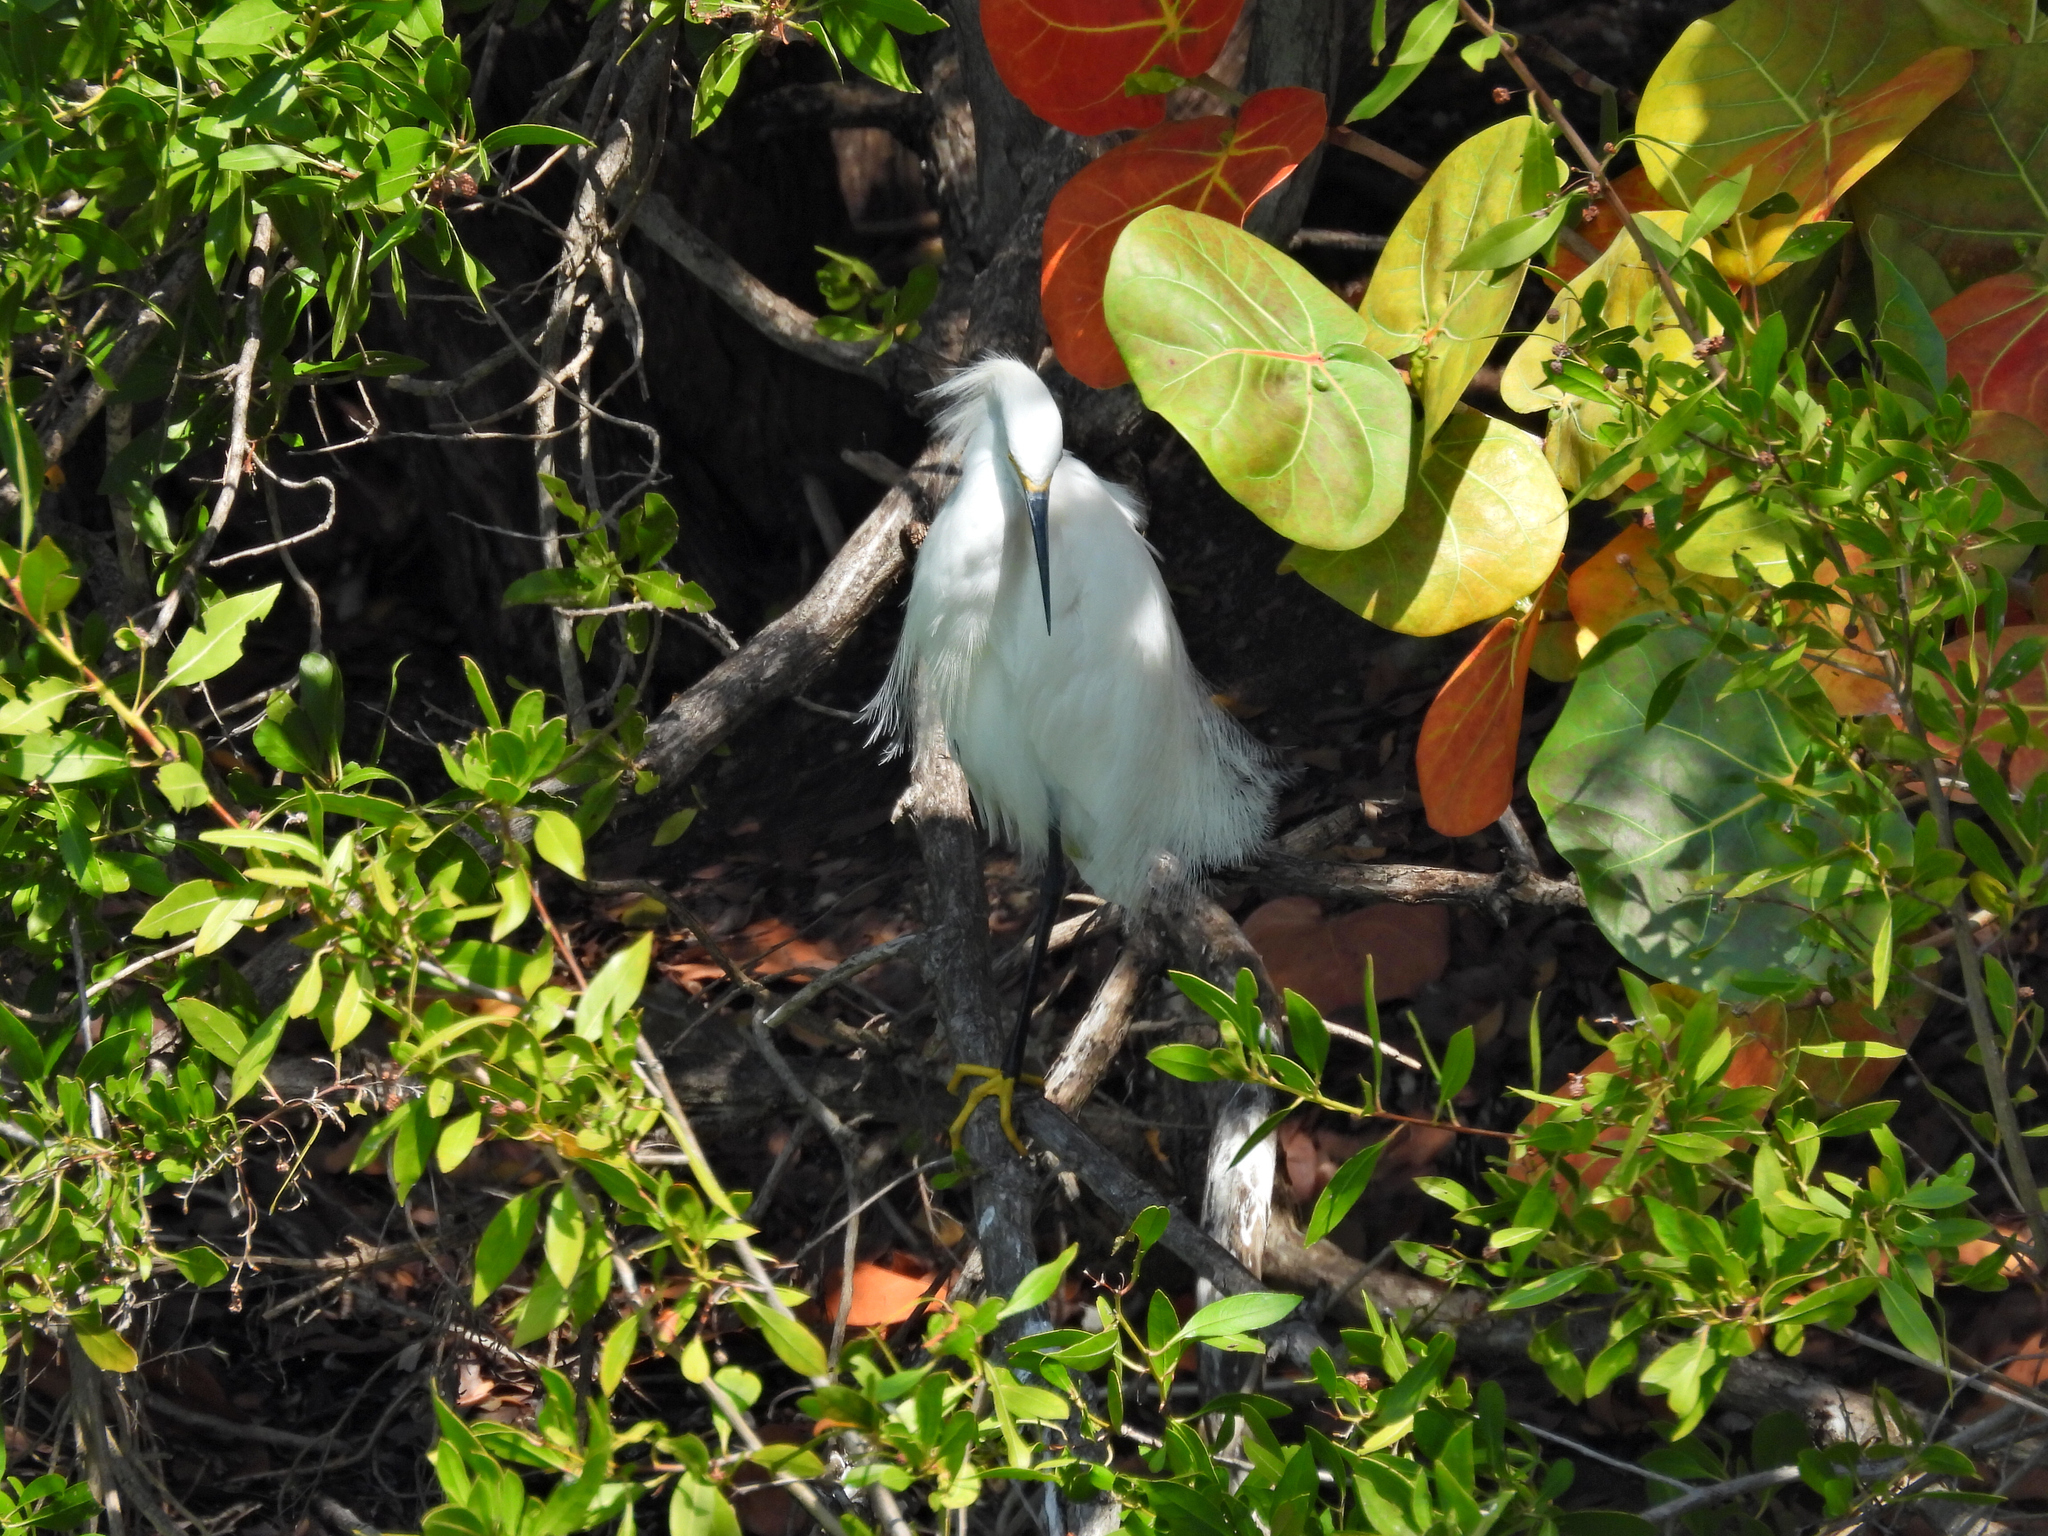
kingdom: Animalia
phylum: Chordata
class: Aves
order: Pelecaniformes
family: Ardeidae
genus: Egretta
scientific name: Egretta thula
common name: Snowy egret
